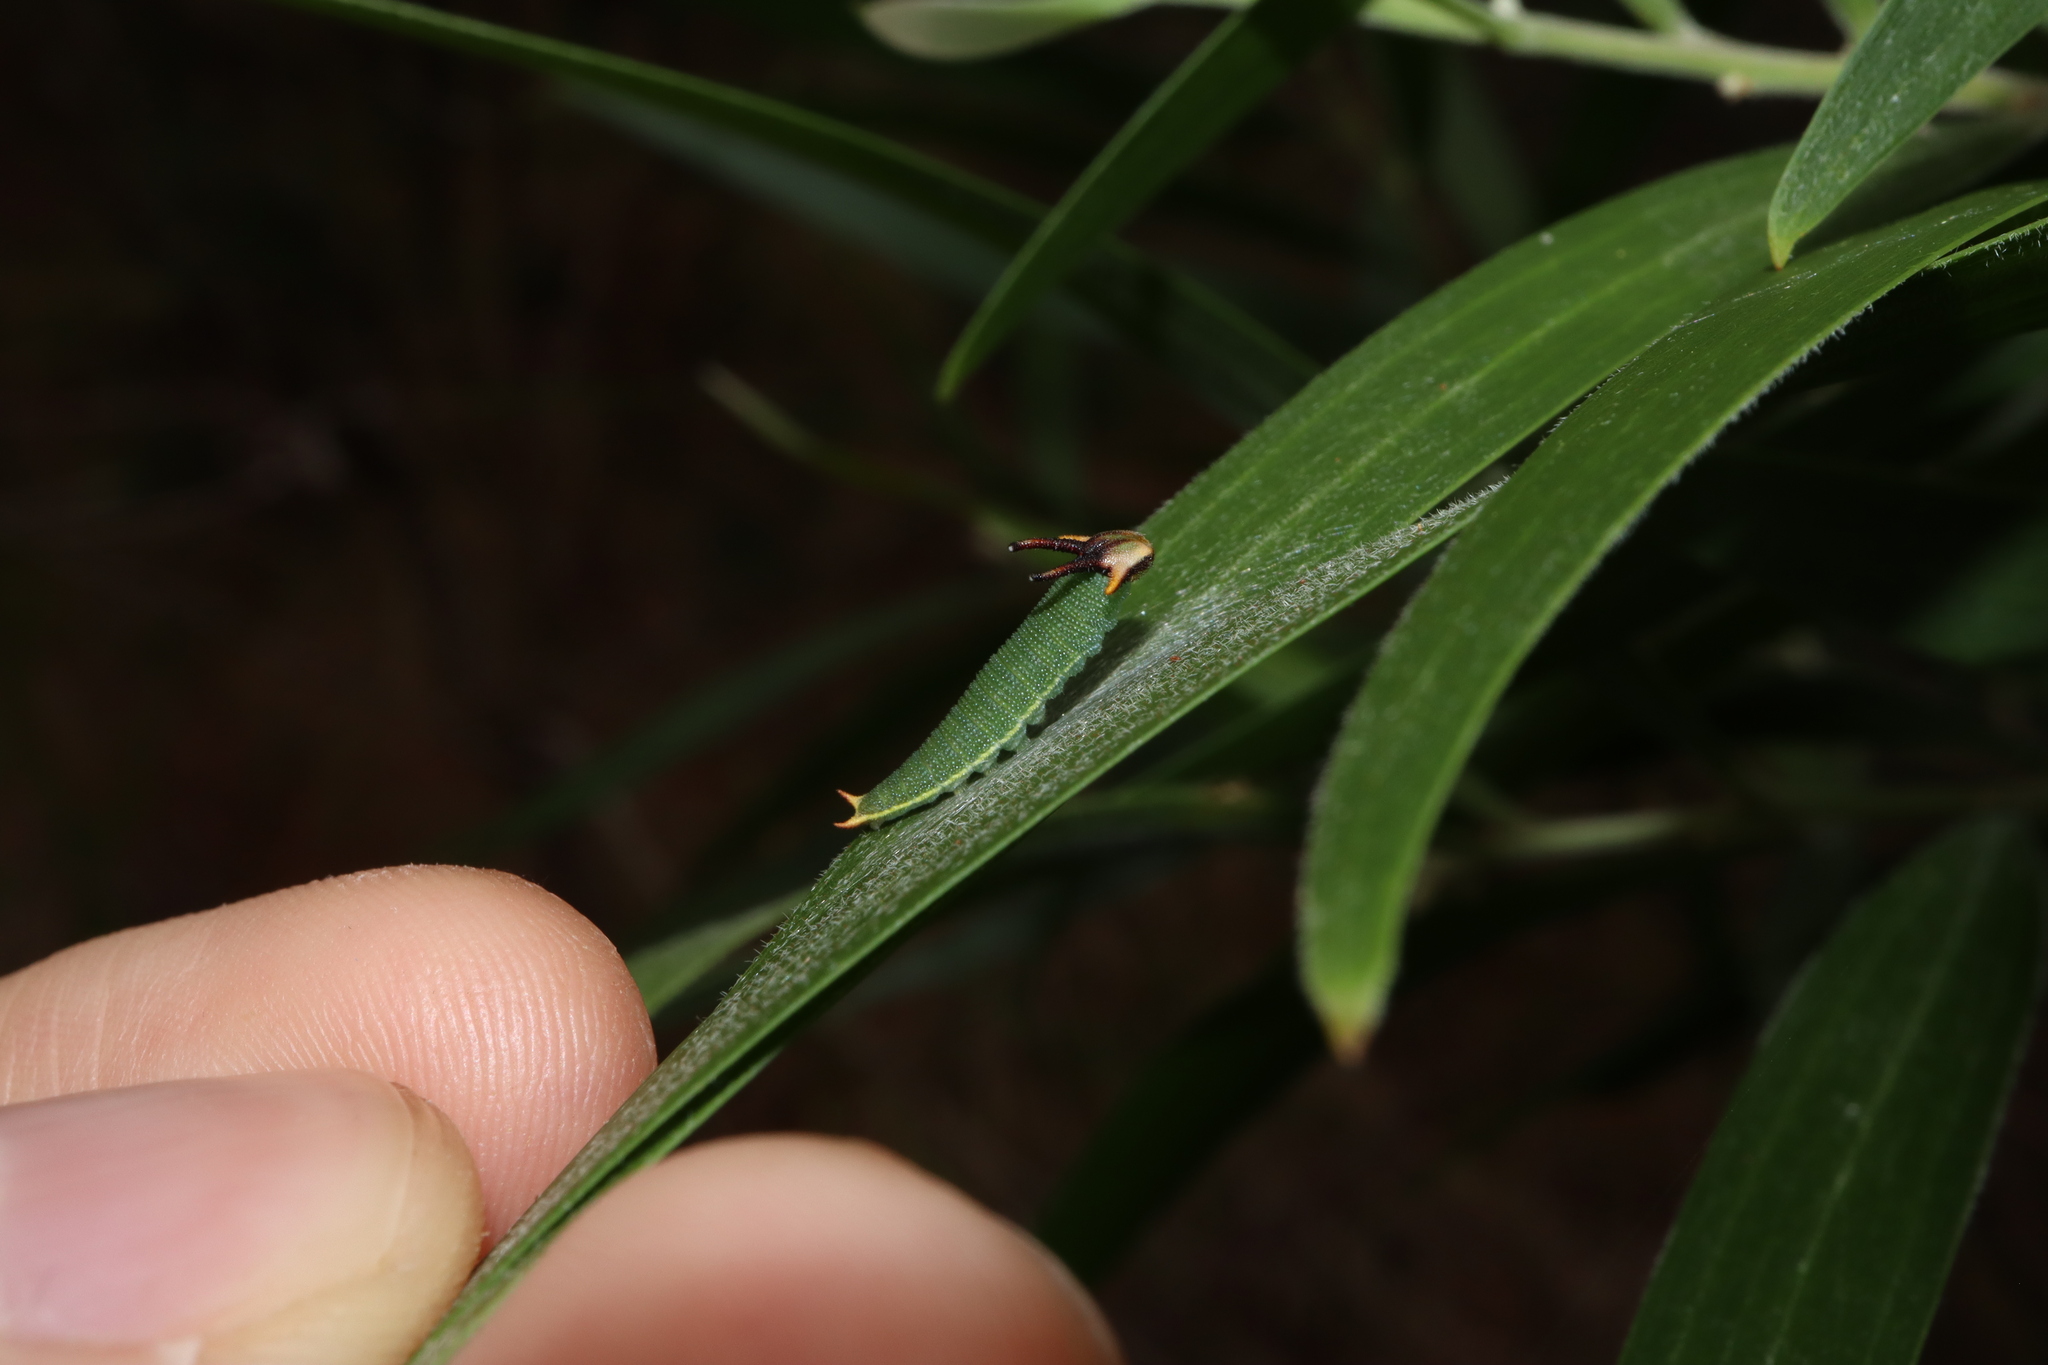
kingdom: Animalia
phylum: Arthropoda
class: Insecta
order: Lepidoptera
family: Nymphalidae
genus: Charaxes
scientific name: Charaxes
